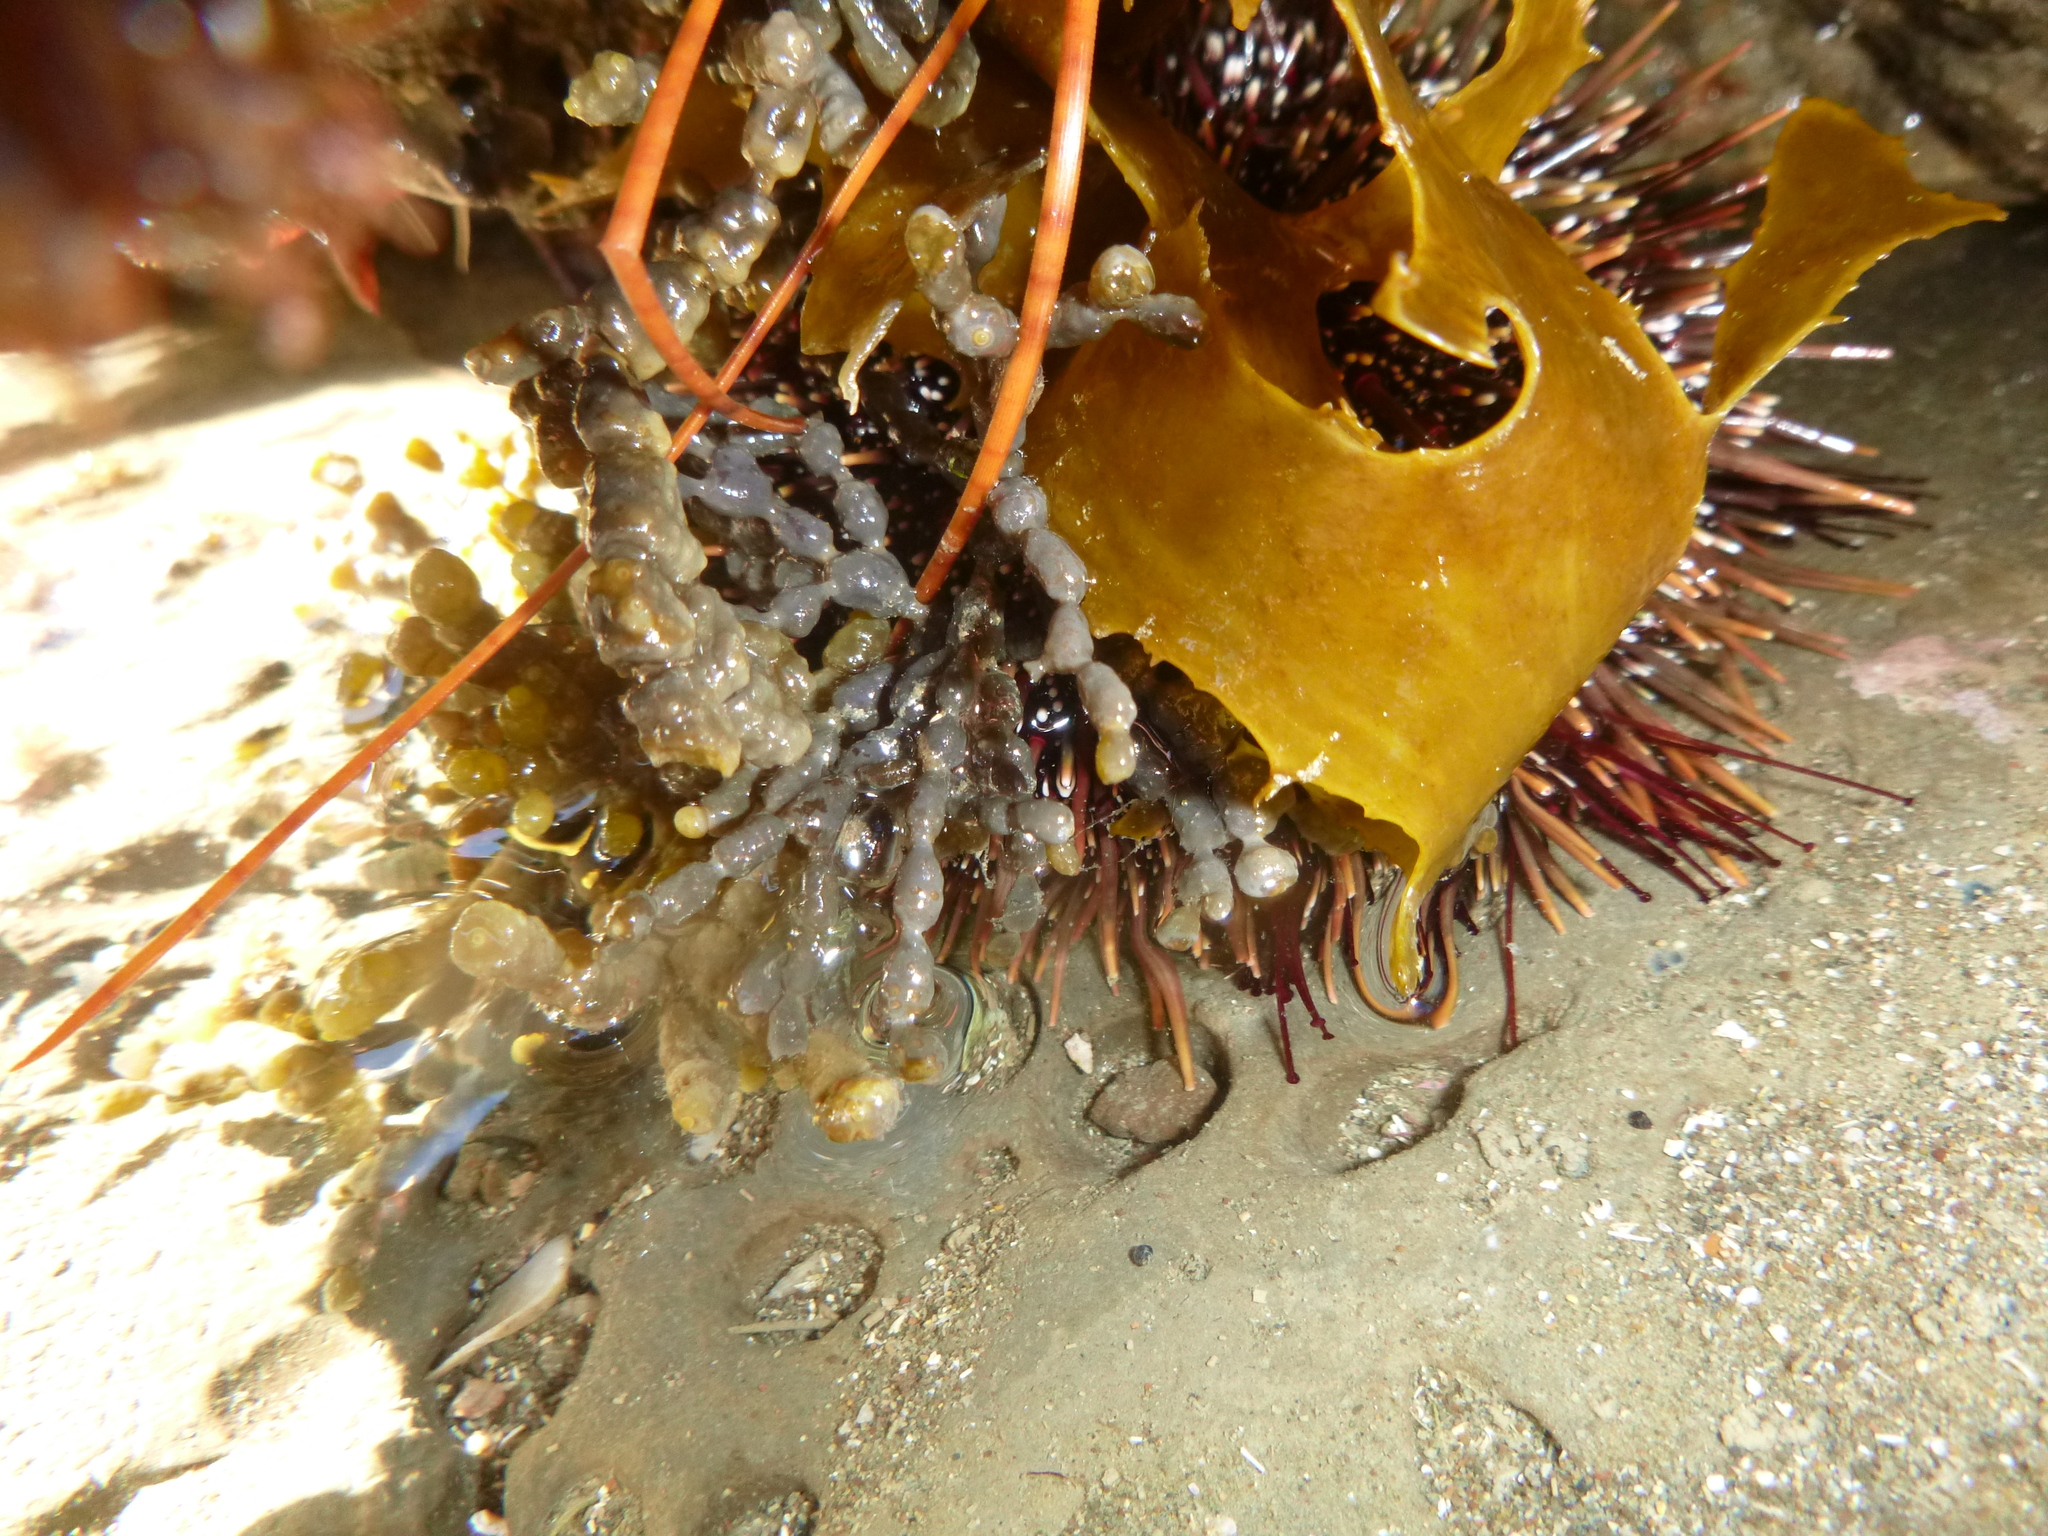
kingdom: Animalia
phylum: Echinodermata
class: Echinoidea
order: Camarodonta
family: Echinometridae
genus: Evechinus
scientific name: Evechinus chloroticus
